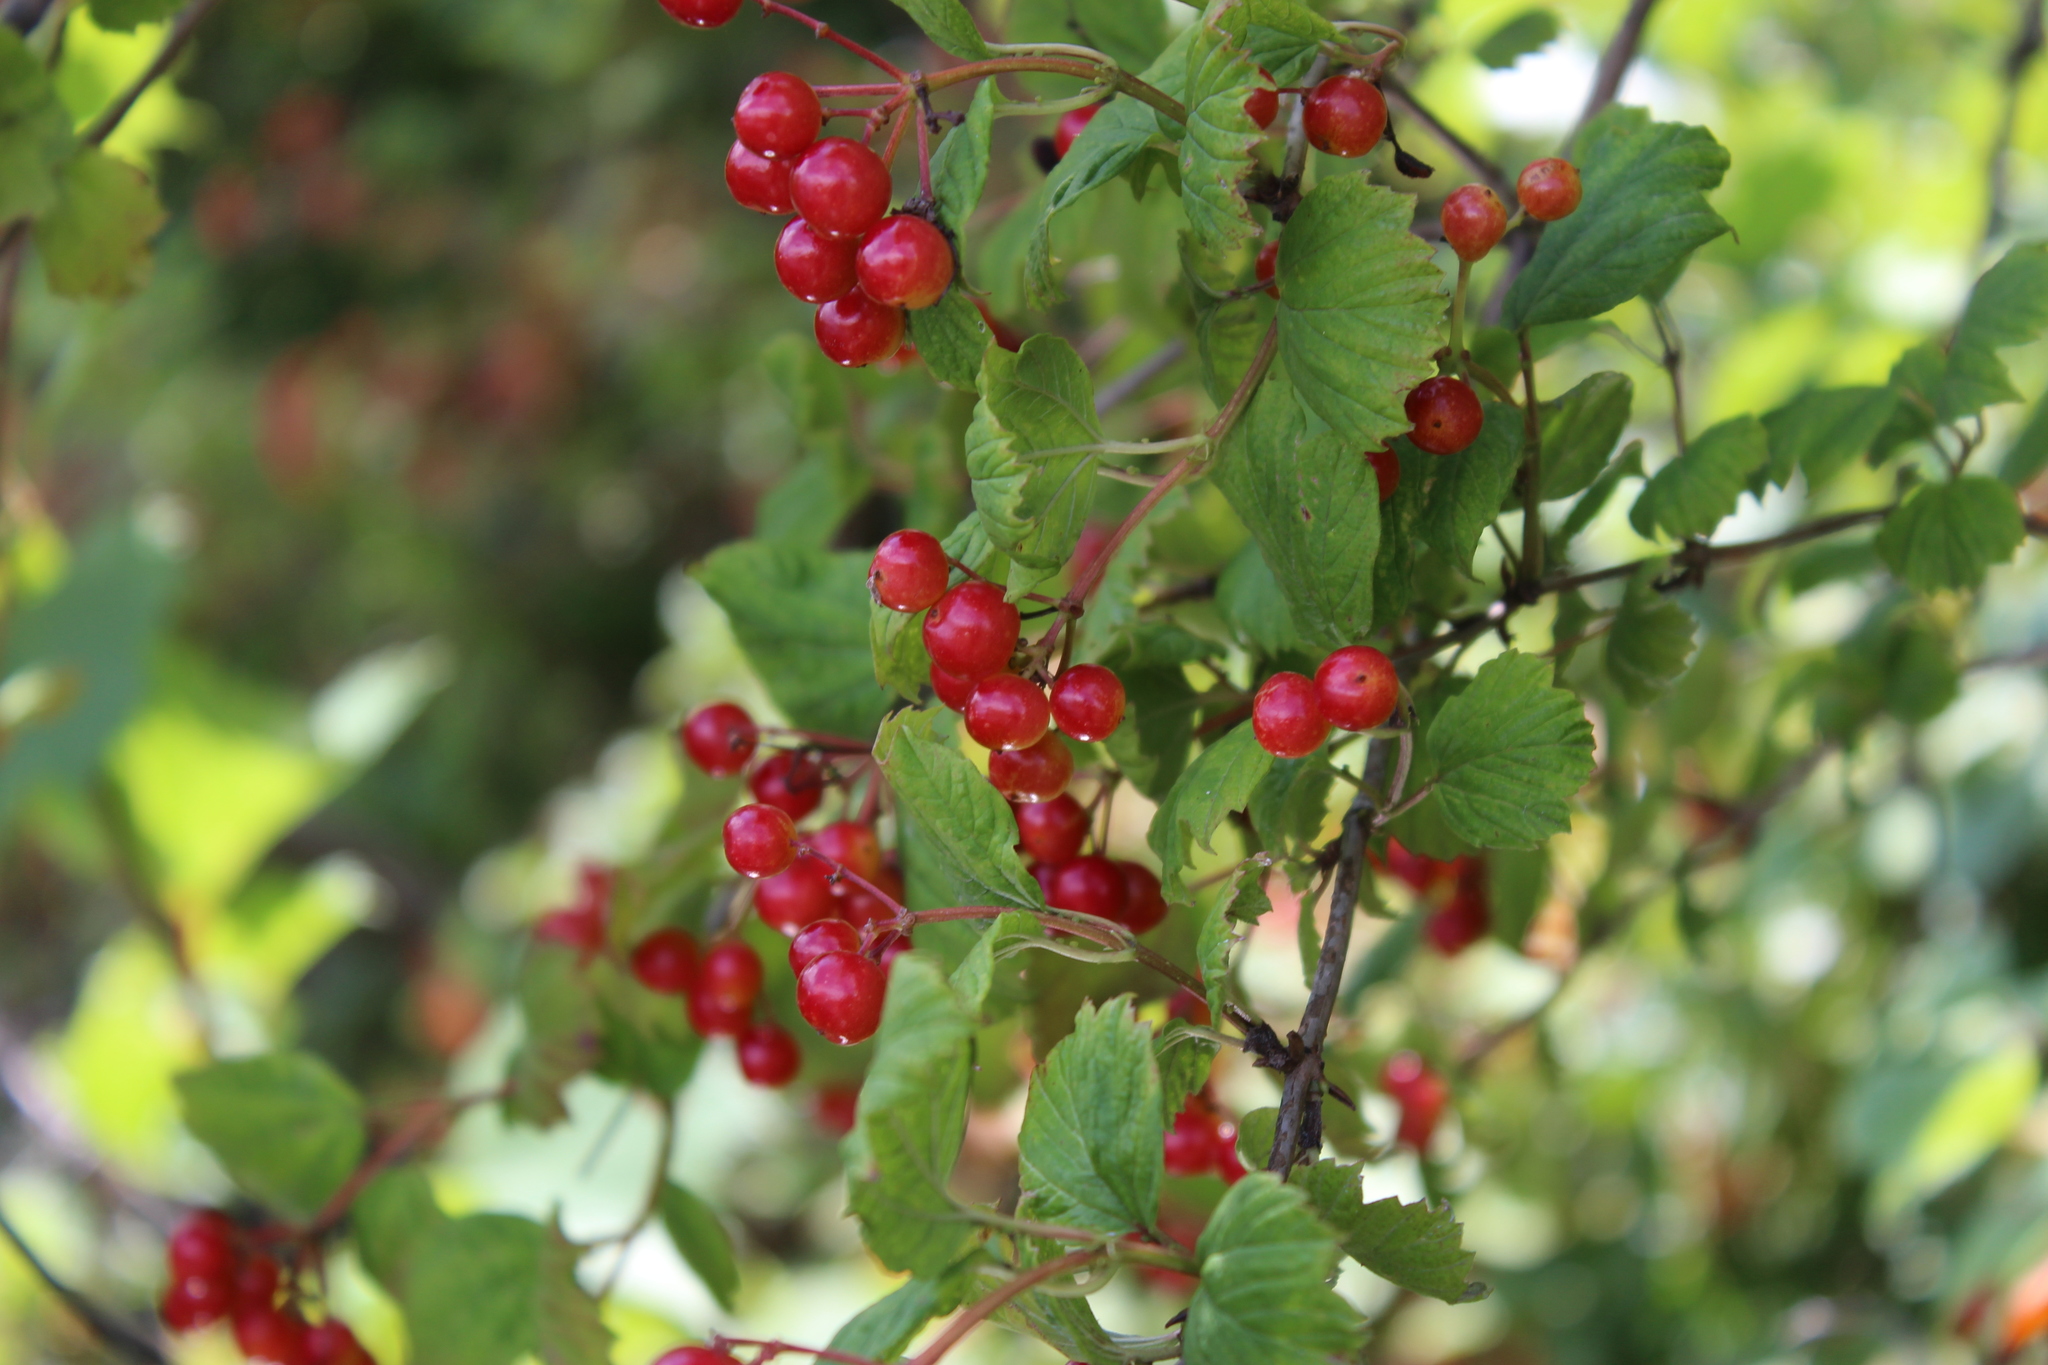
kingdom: Plantae
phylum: Tracheophyta
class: Magnoliopsida
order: Dipsacales
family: Viburnaceae
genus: Viburnum
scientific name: Viburnum opulus
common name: Guelder-rose
